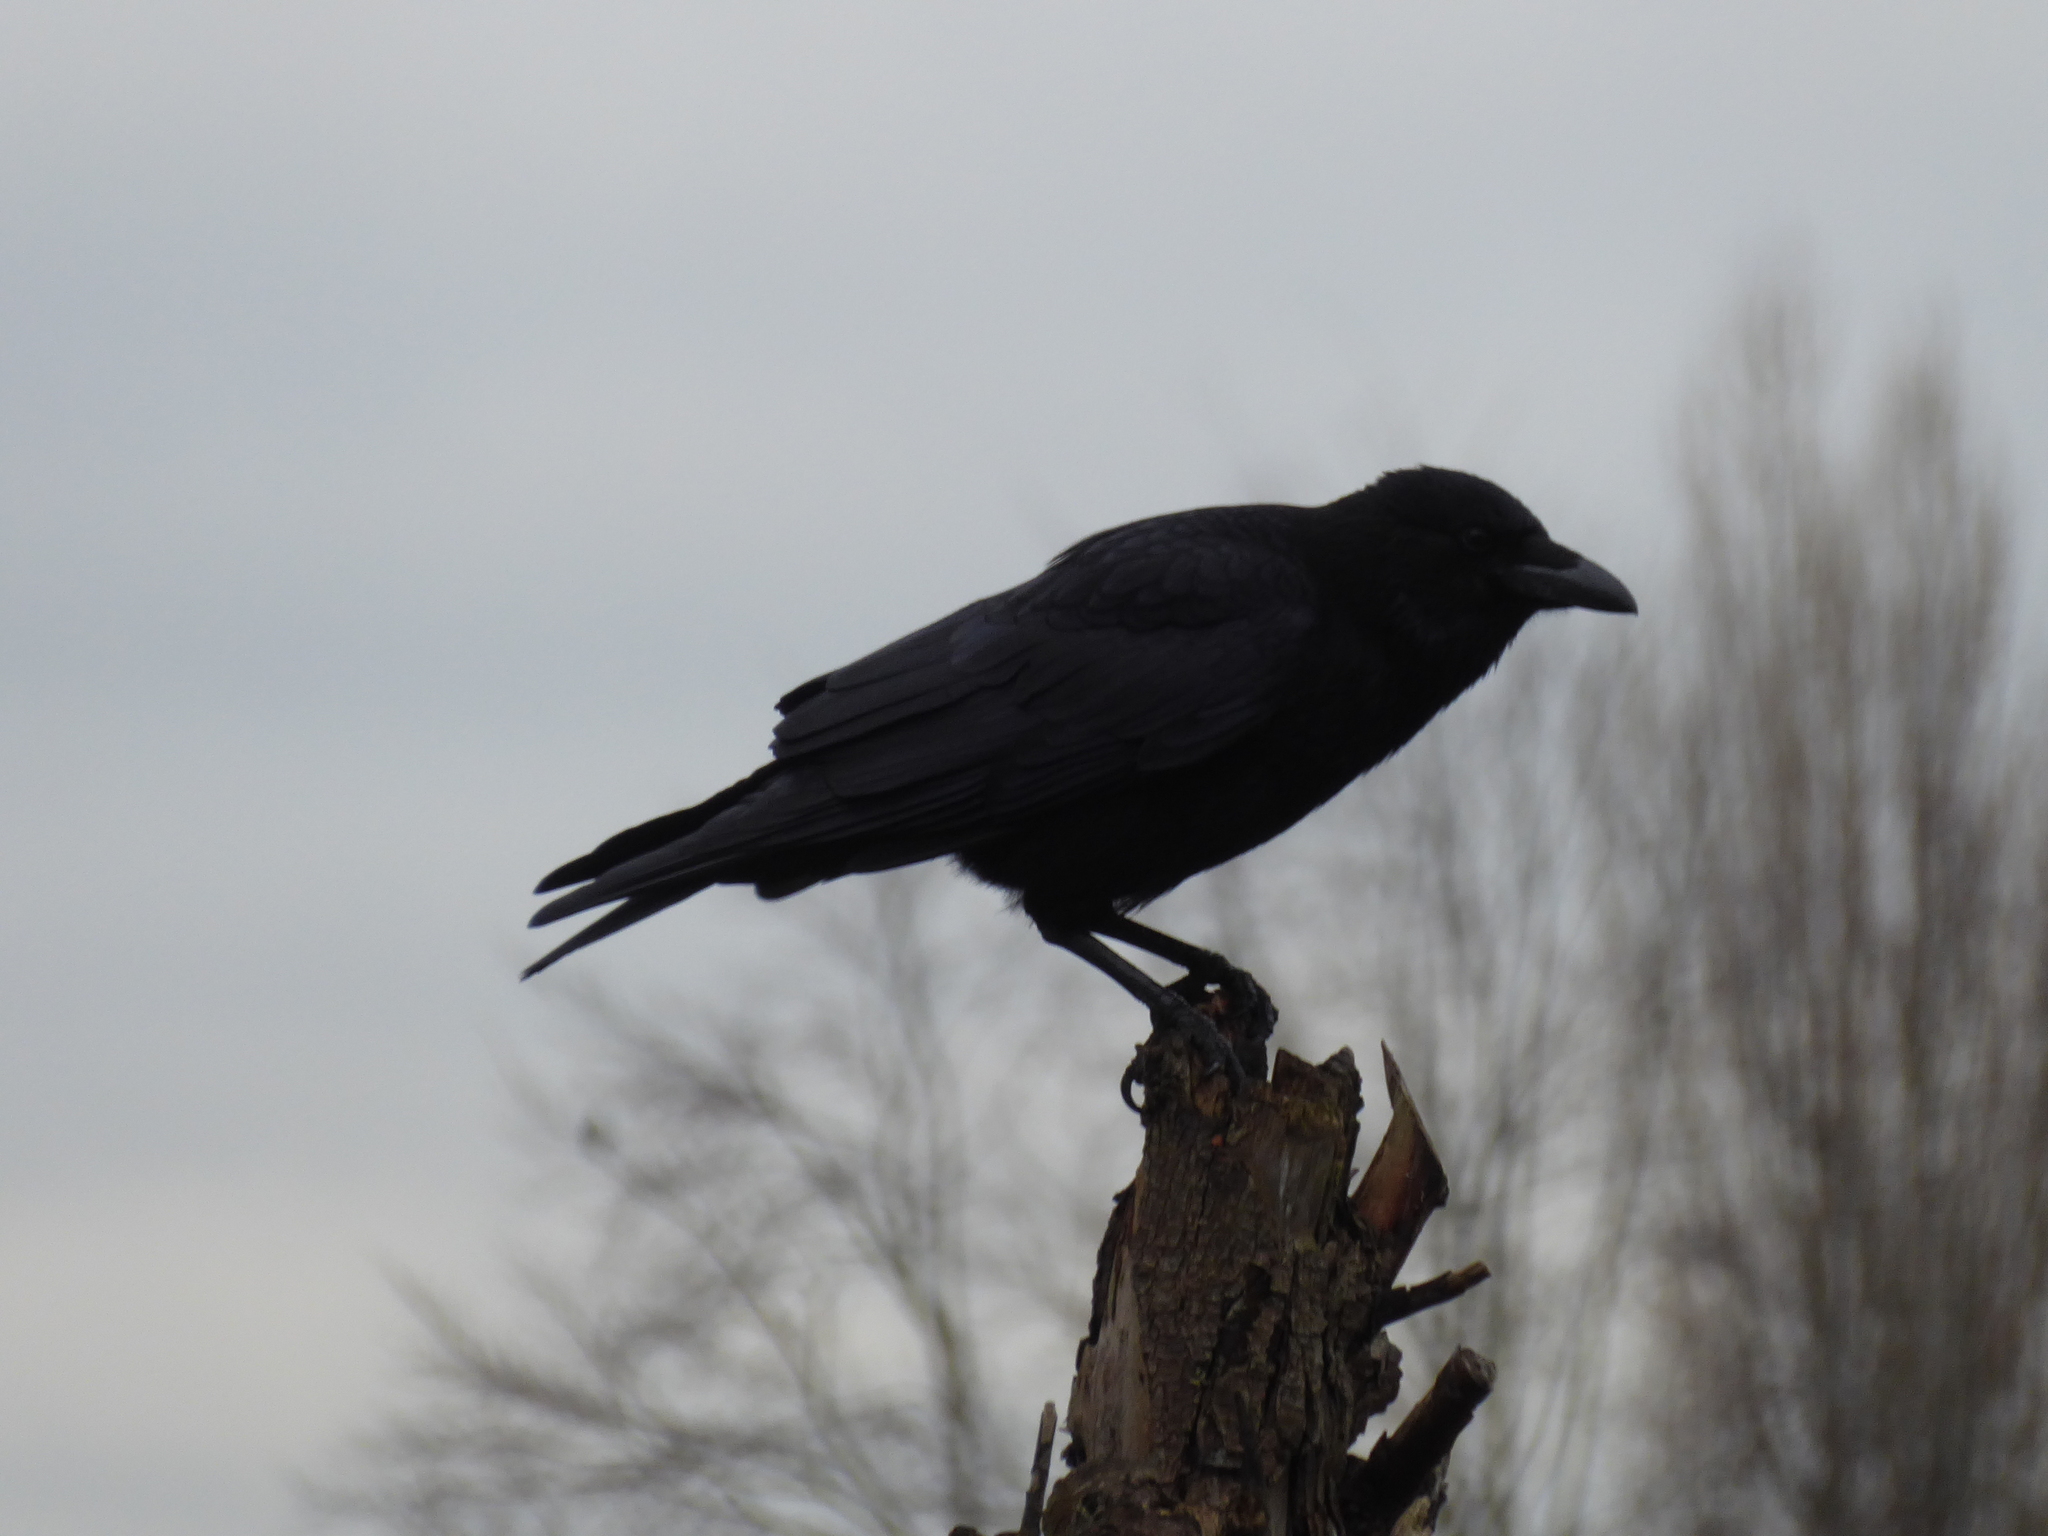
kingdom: Animalia
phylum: Chordata
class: Aves
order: Passeriformes
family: Corvidae
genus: Corvus
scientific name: Corvus corone
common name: Carrion crow
